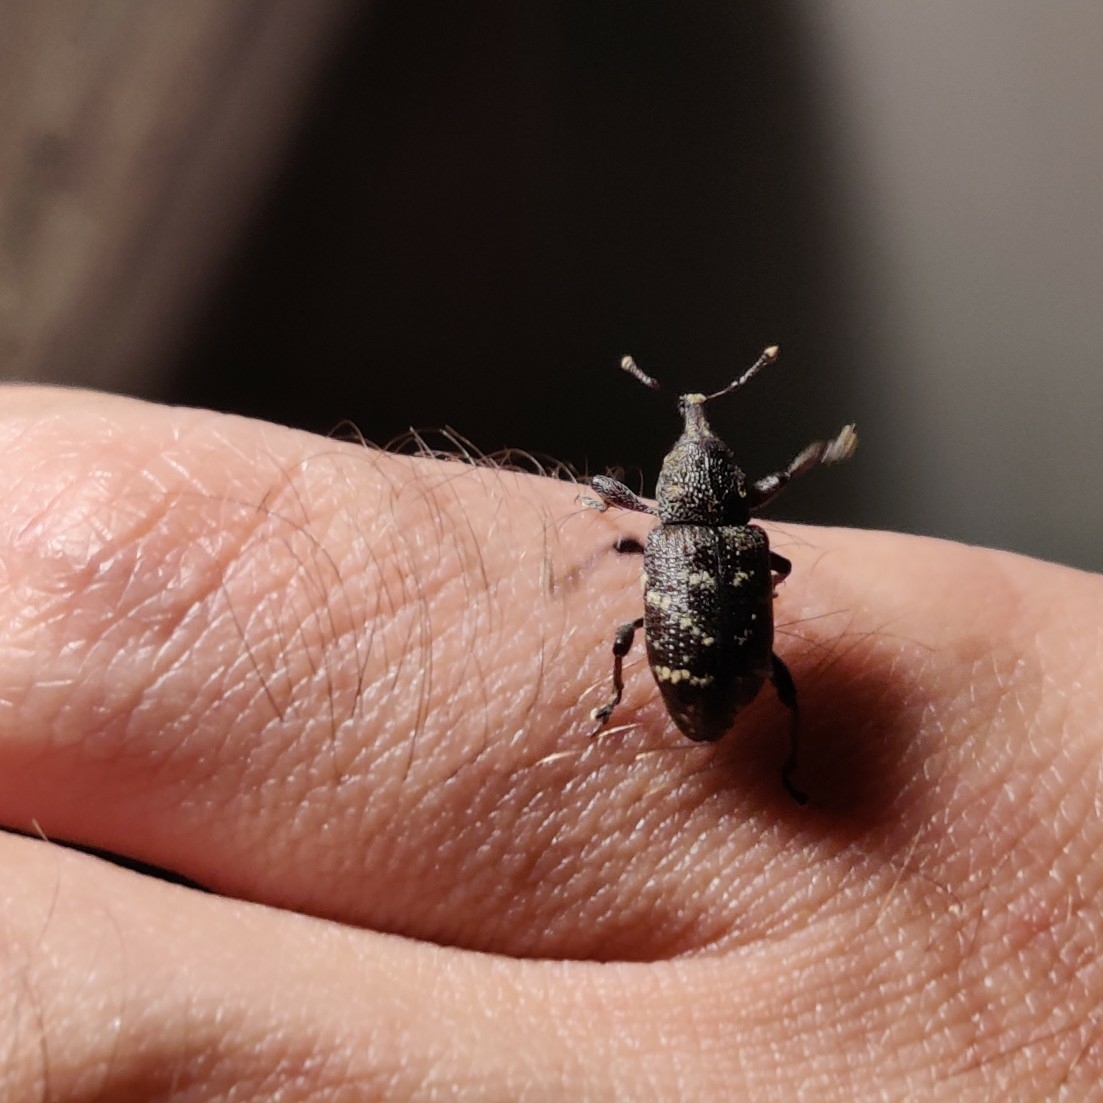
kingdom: Animalia
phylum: Arthropoda
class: Insecta
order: Coleoptera
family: Curculionidae
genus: Hylobius
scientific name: Hylobius abietis
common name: Large pine weevil
